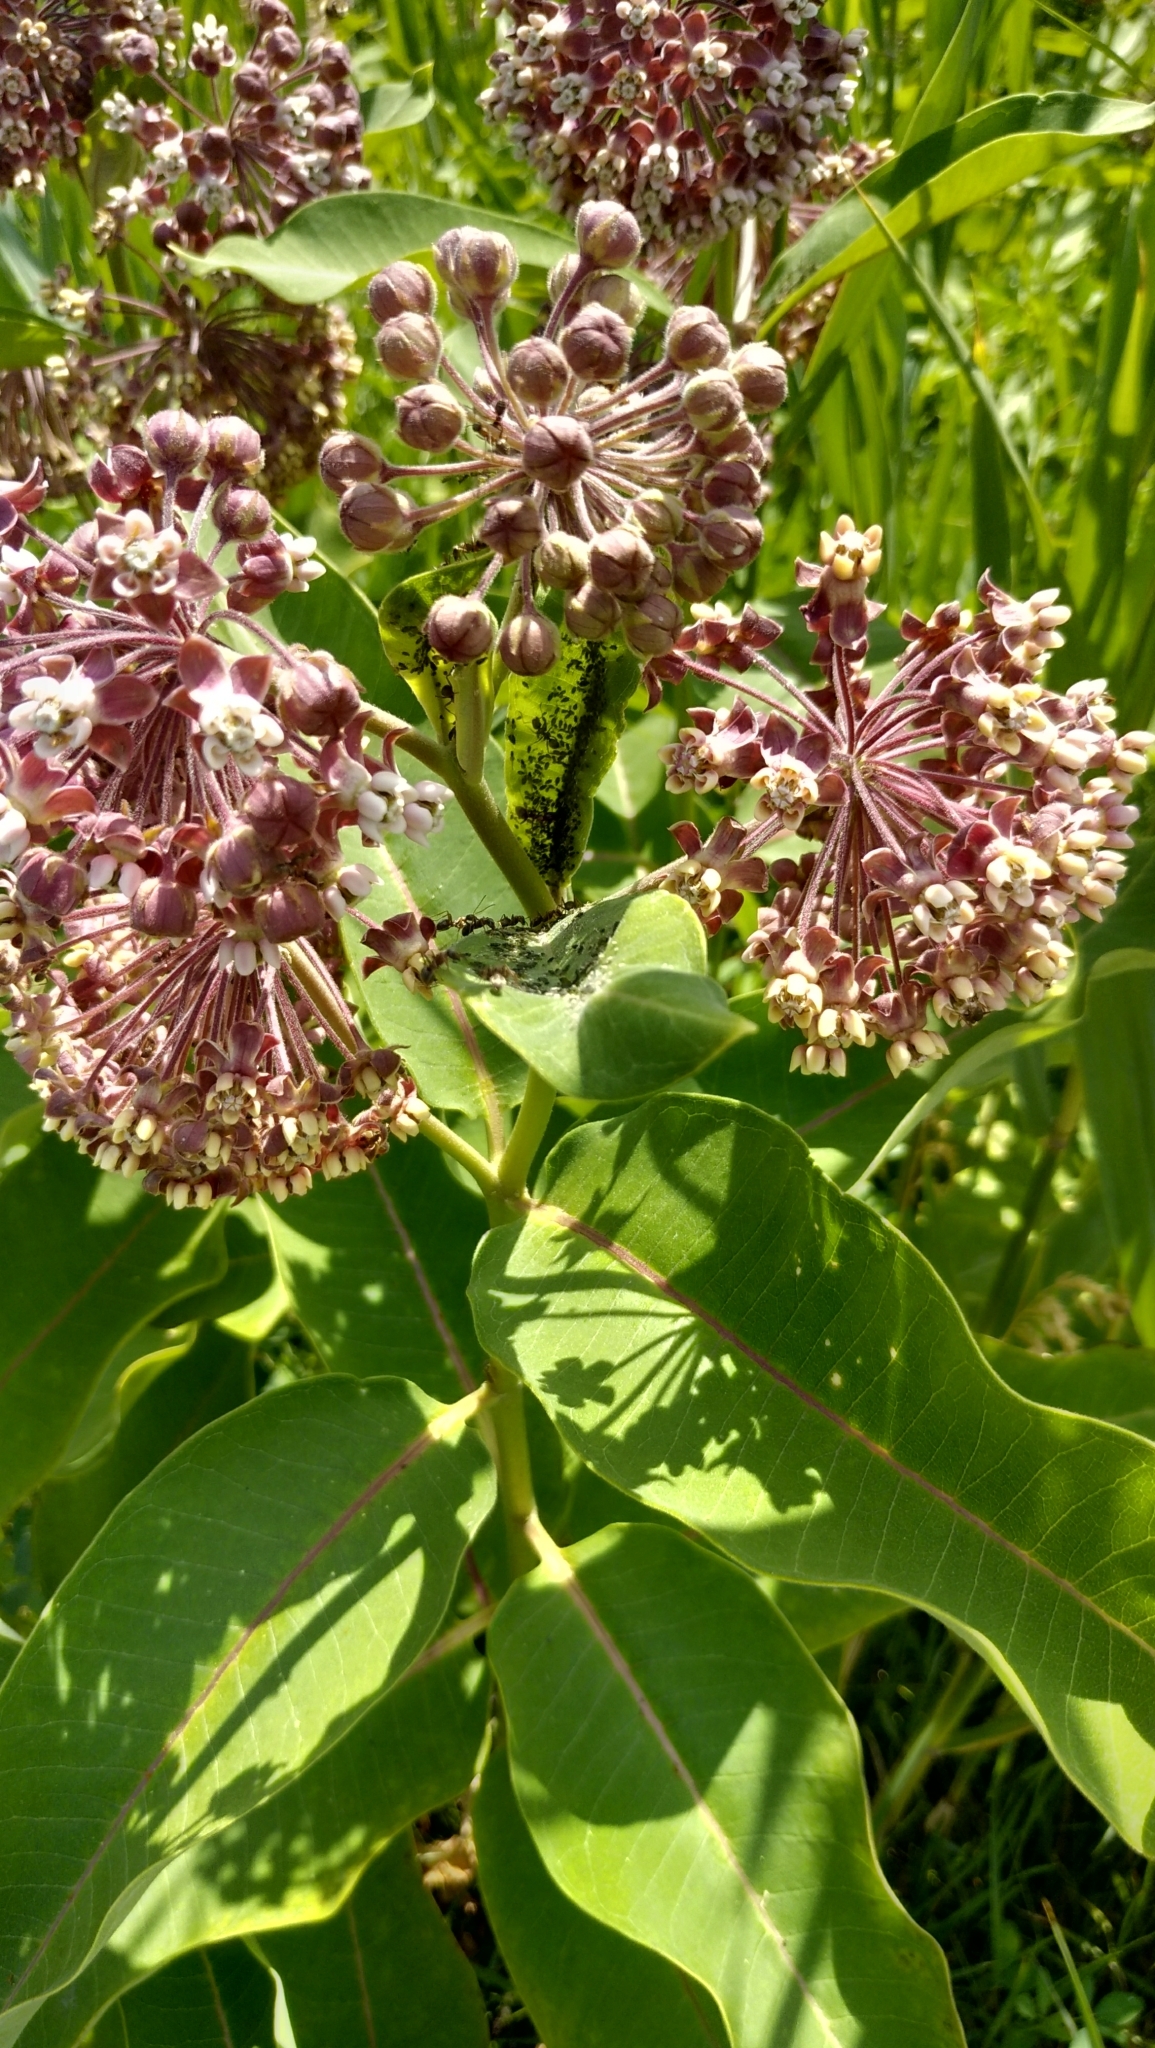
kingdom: Plantae
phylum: Tracheophyta
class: Magnoliopsida
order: Gentianales
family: Apocynaceae
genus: Asclepias
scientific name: Asclepias syriaca
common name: Common milkweed
